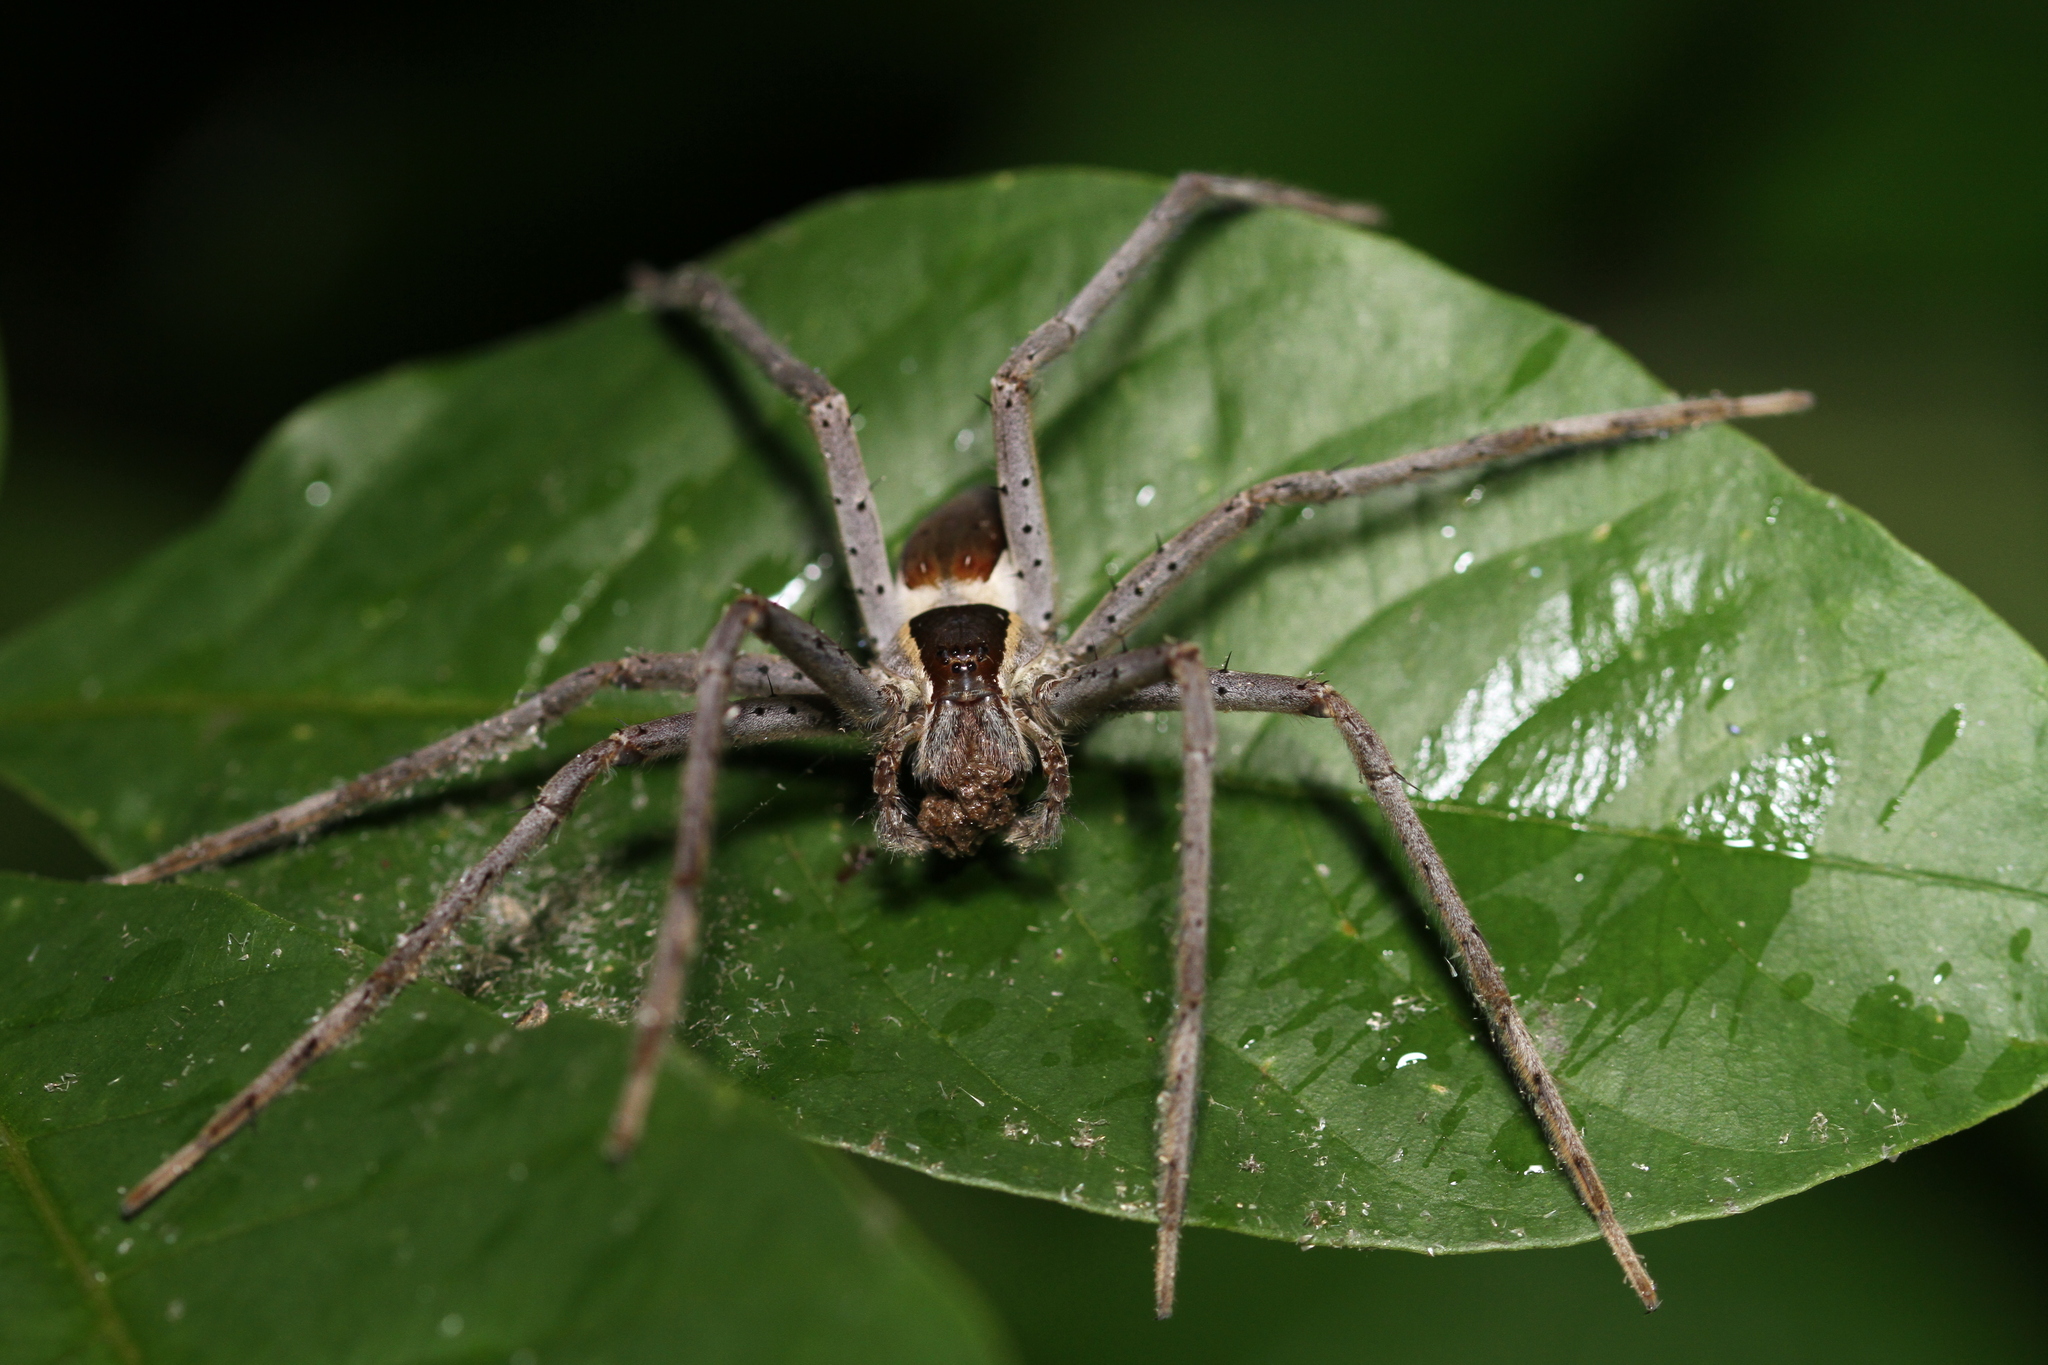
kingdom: Animalia
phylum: Arthropoda
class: Arachnida
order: Araneae
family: Pisauridae
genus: Nilus
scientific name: Nilus albocinctus
